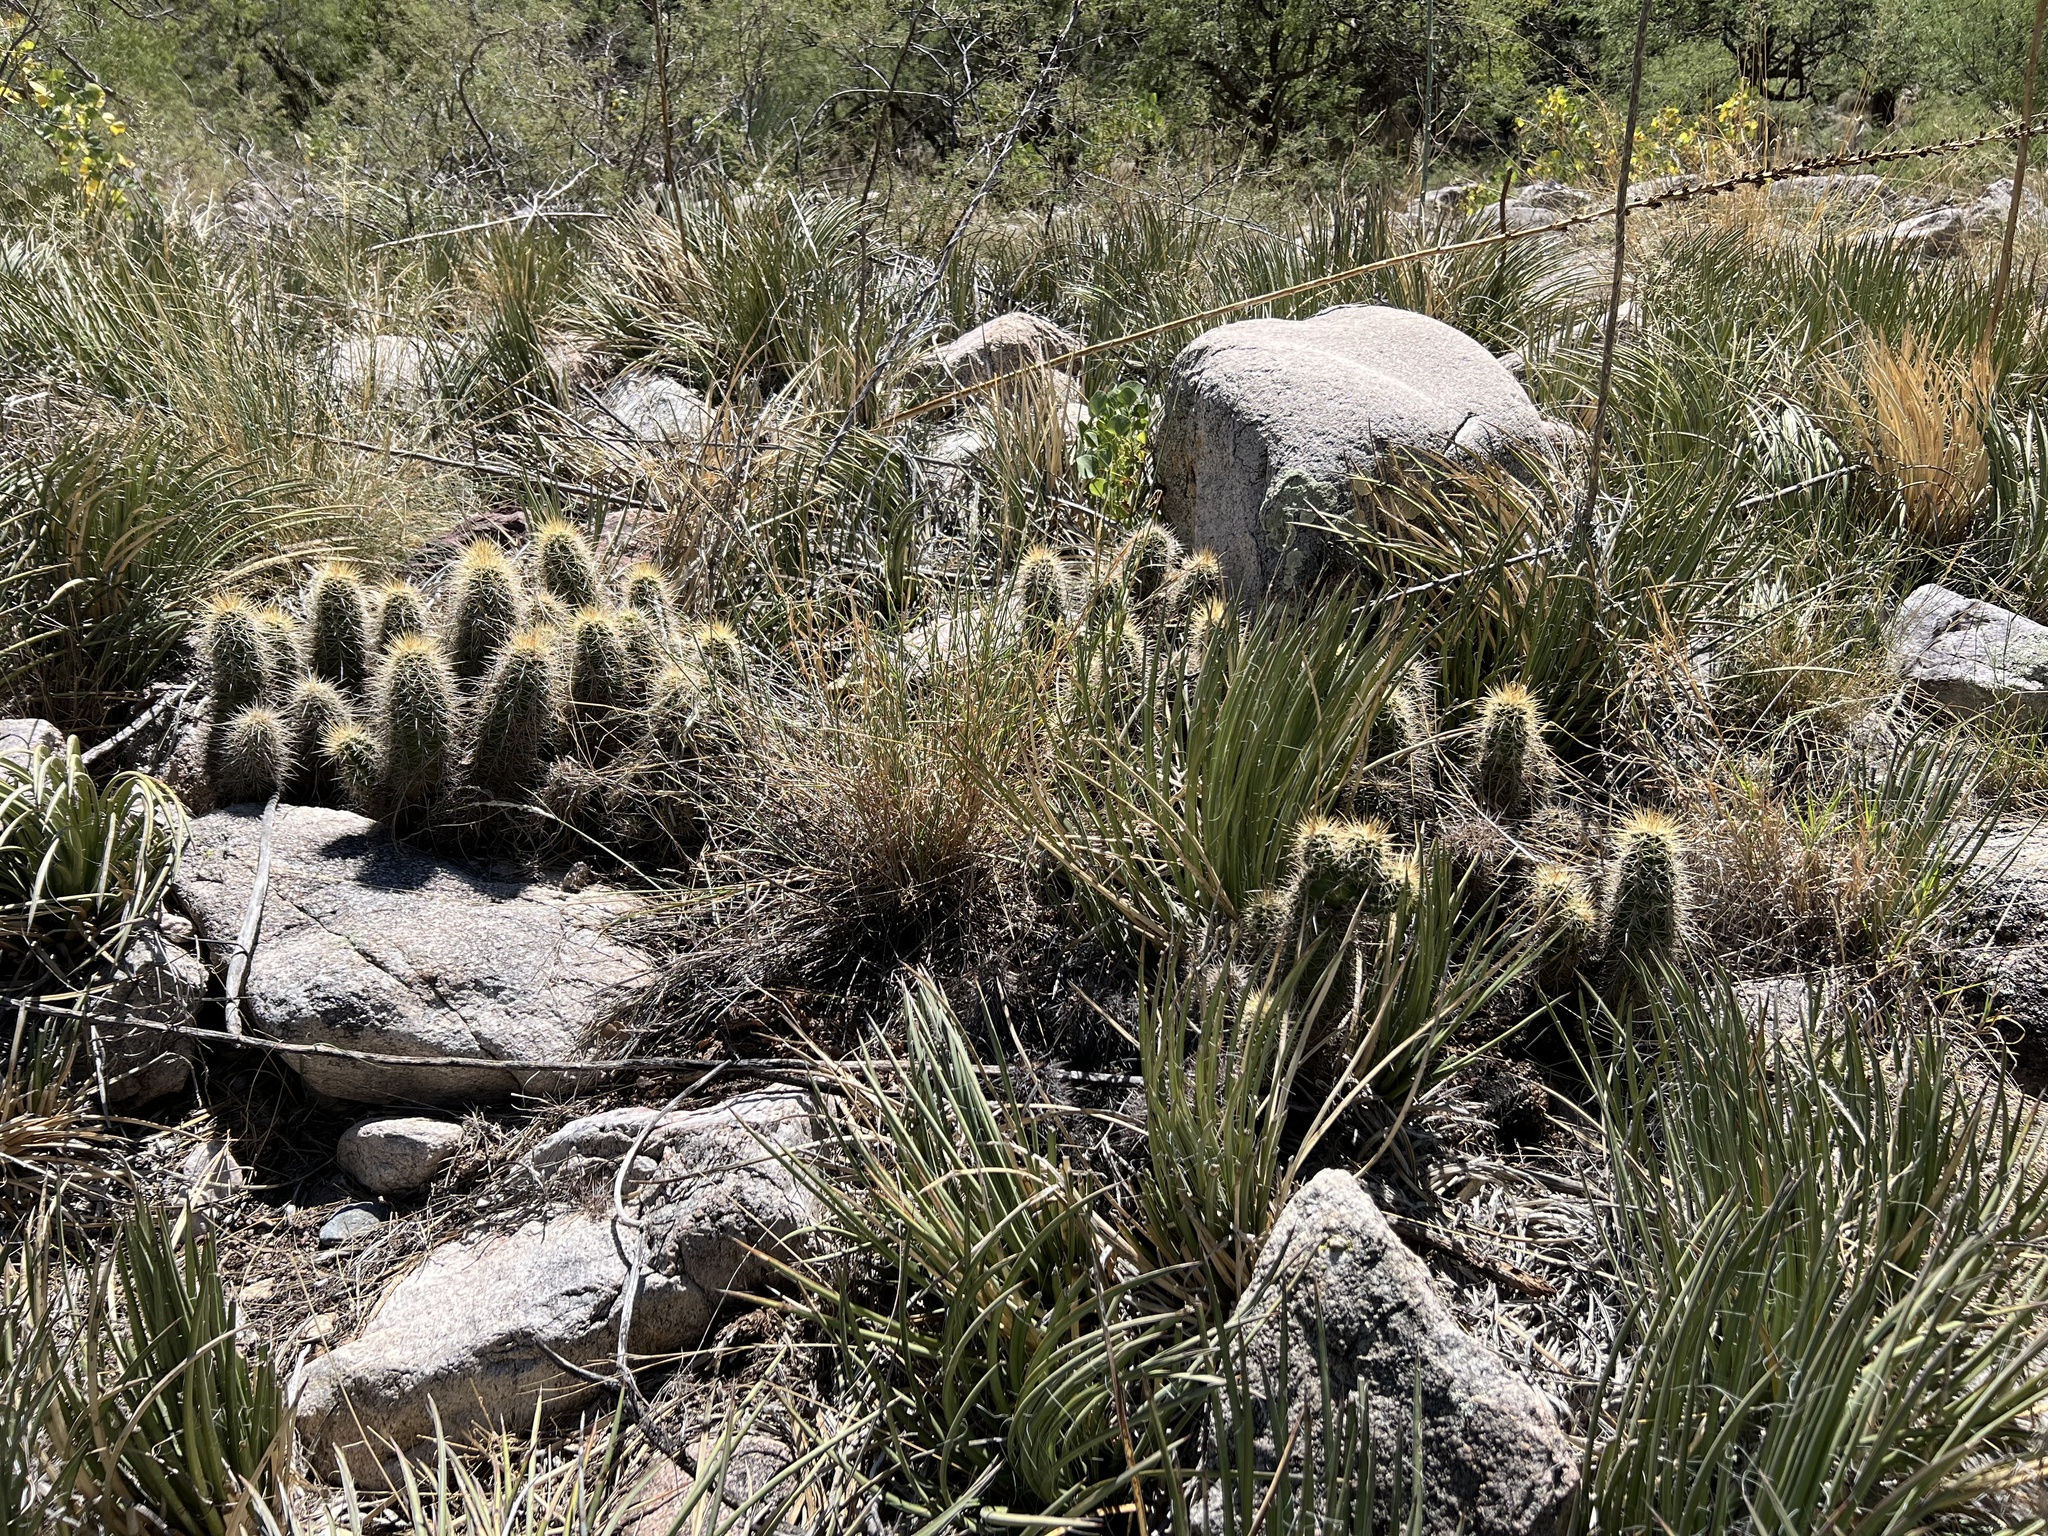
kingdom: Plantae
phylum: Tracheophyta
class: Magnoliopsida
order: Caryophyllales
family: Cactaceae
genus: Echinocereus
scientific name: Echinocereus coccineus
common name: Scarlet hedgehog cactus
